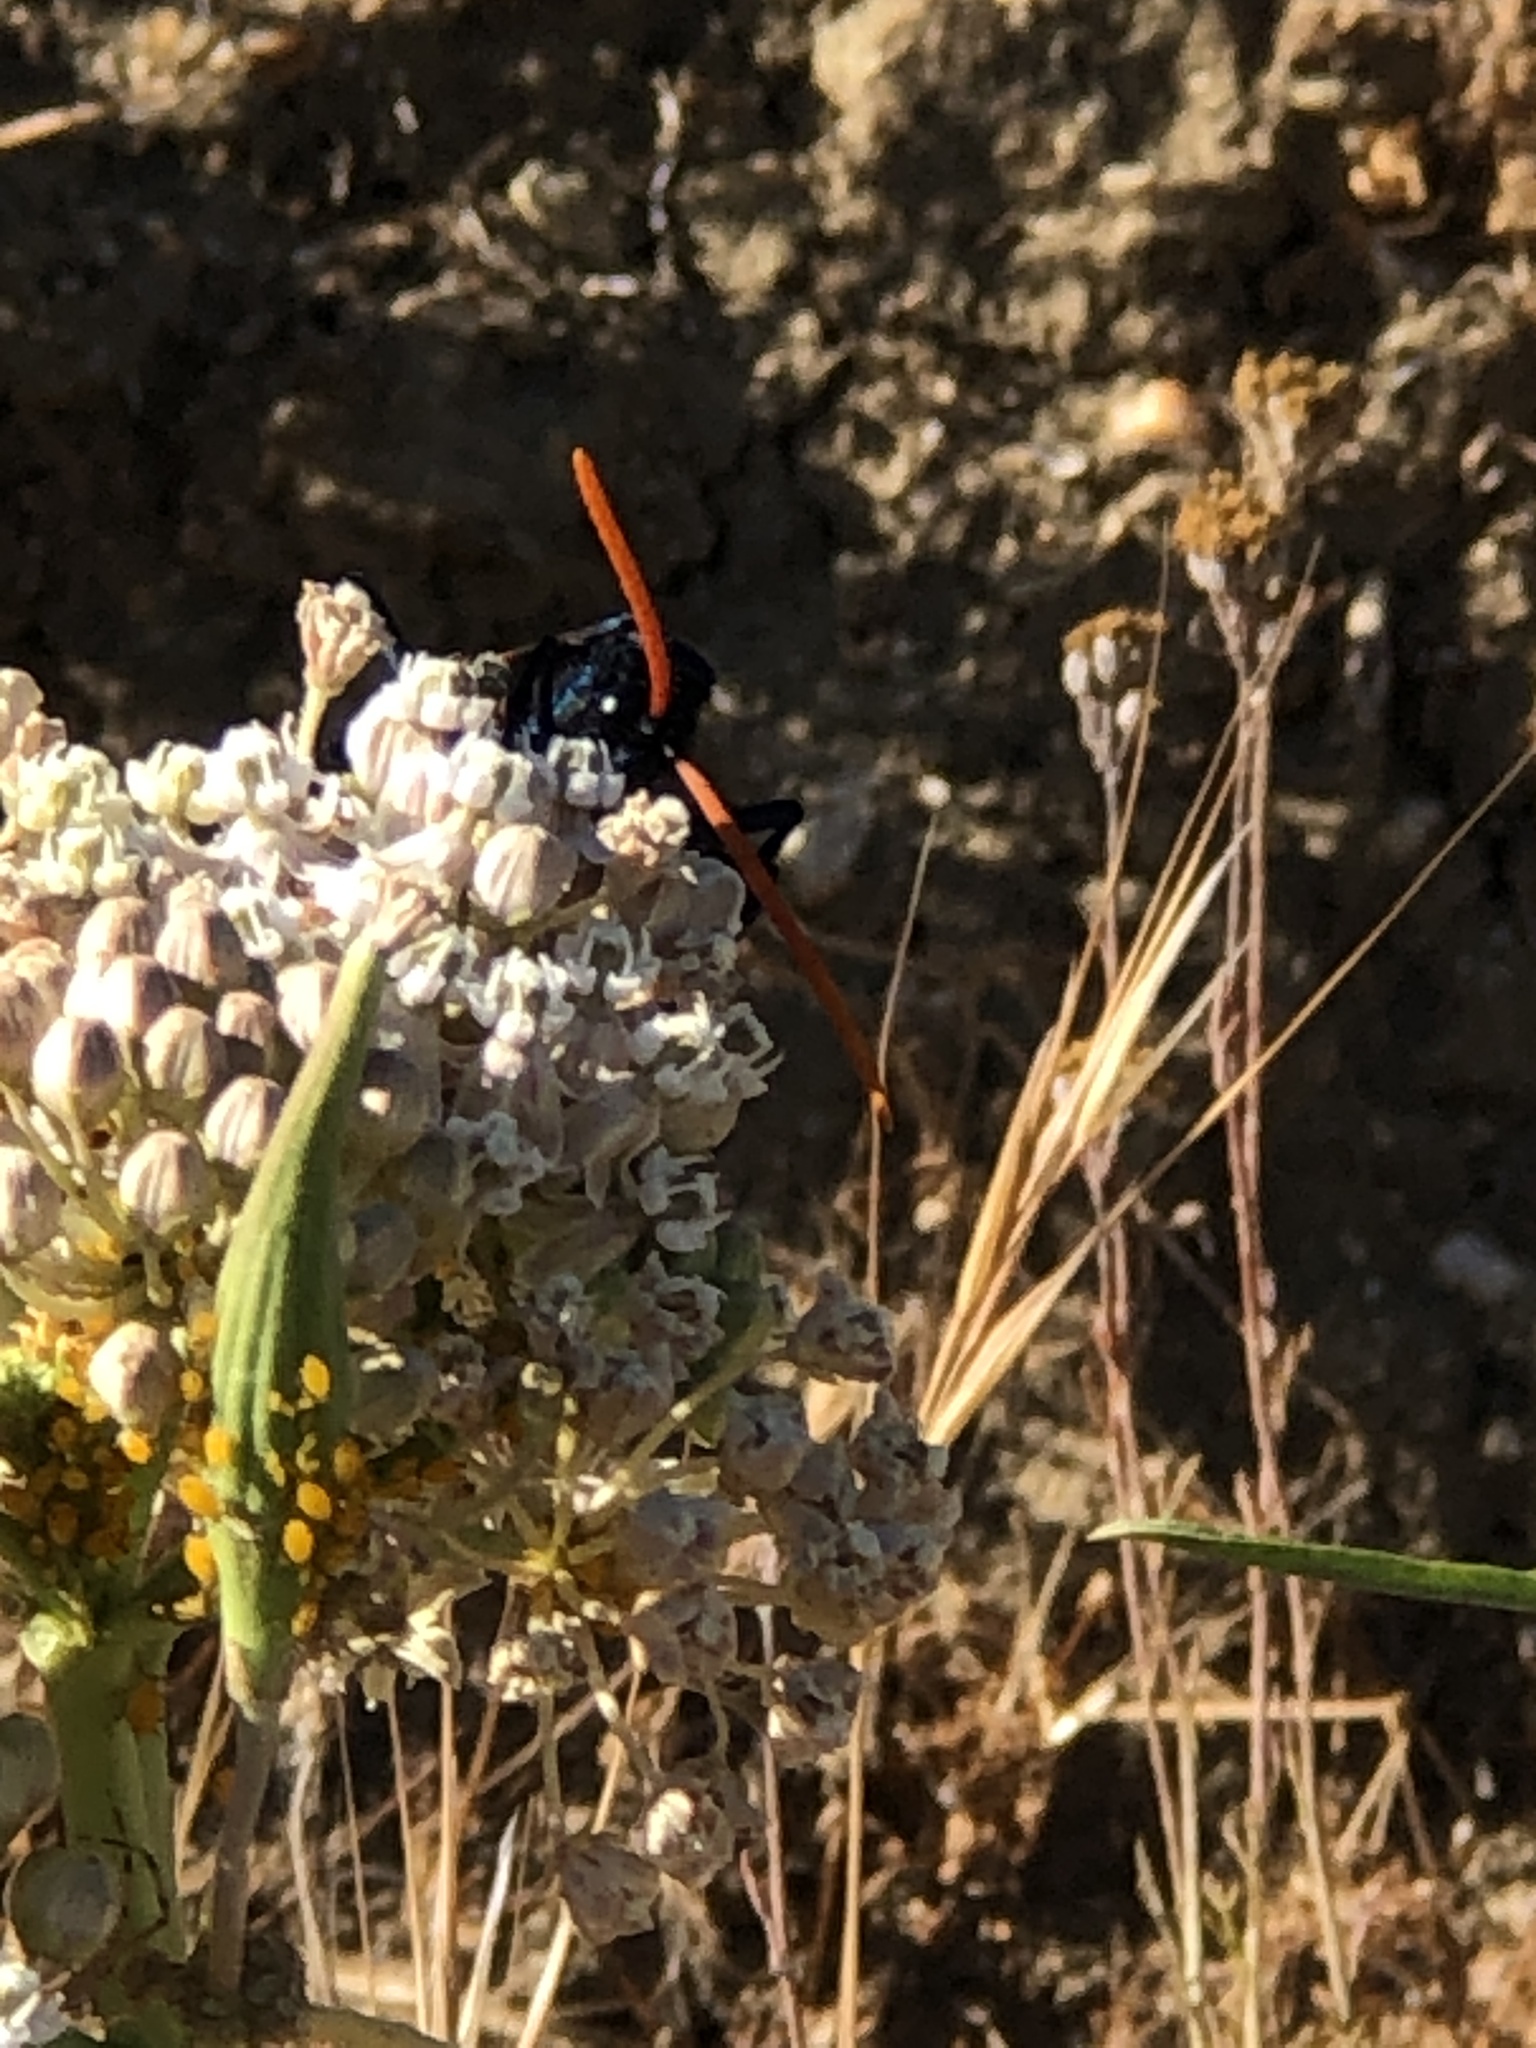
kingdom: Plantae
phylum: Tracheophyta
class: Magnoliopsida
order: Gentianales
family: Apocynaceae
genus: Asclepias
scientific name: Asclepias fascicularis
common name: Mexican milkweed
